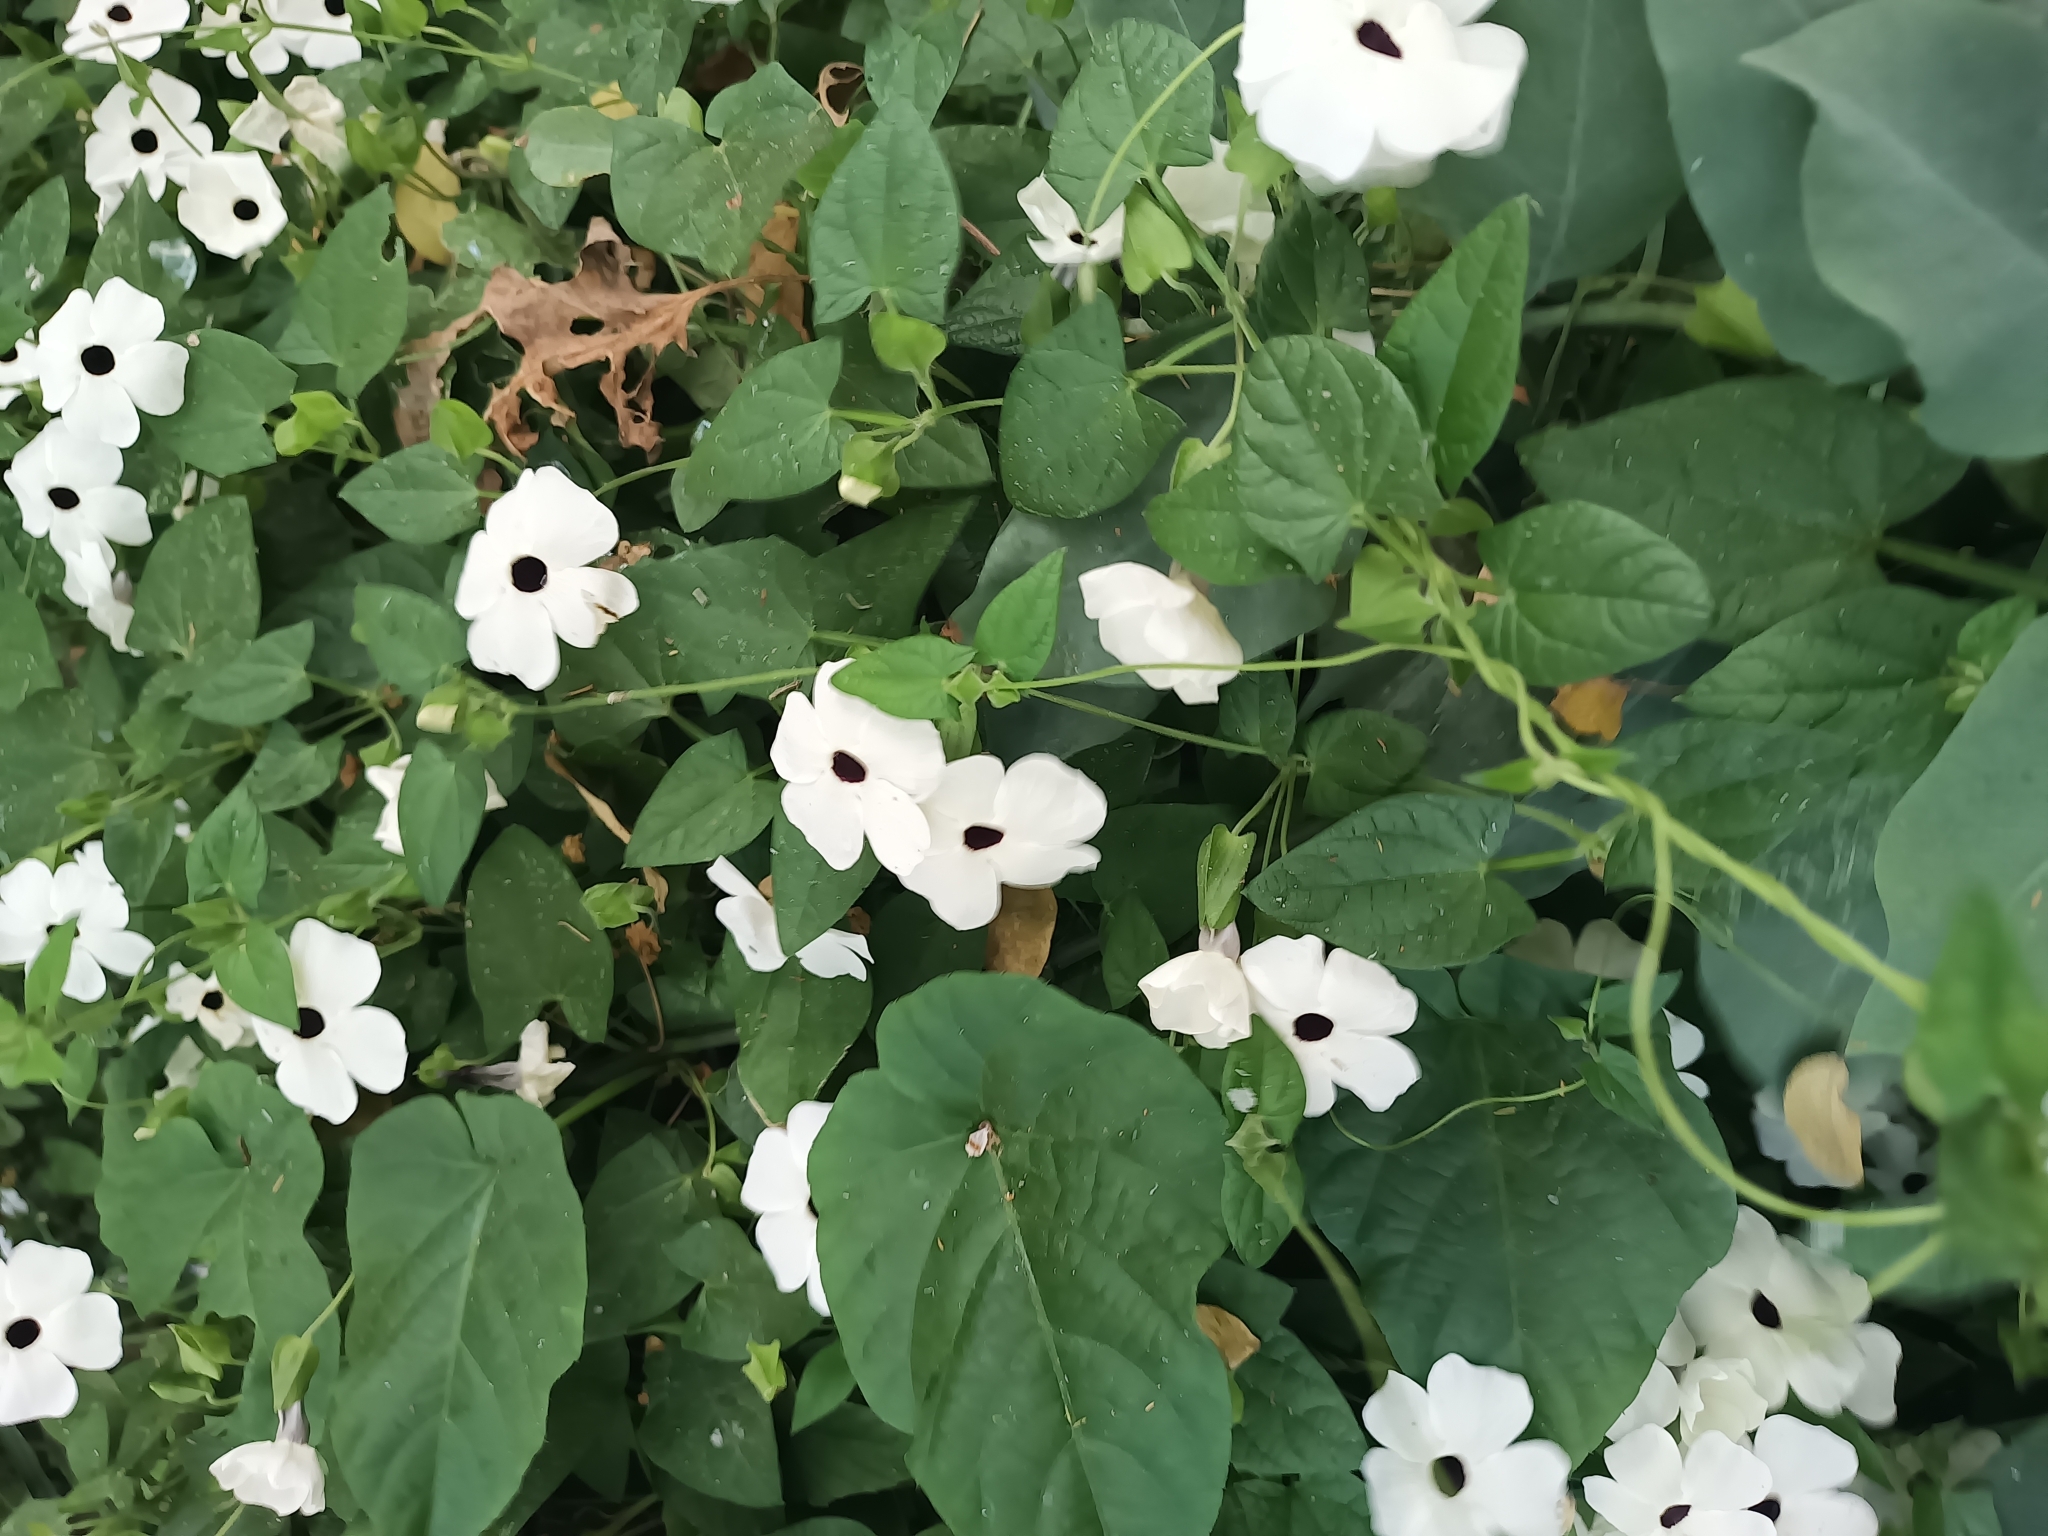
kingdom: Plantae
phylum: Tracheophyta
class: Magnoliopsida
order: Lamiales
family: Acanthaceae
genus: Thunbergia
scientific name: Thunbergia alata
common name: Blackeyed susan vine
